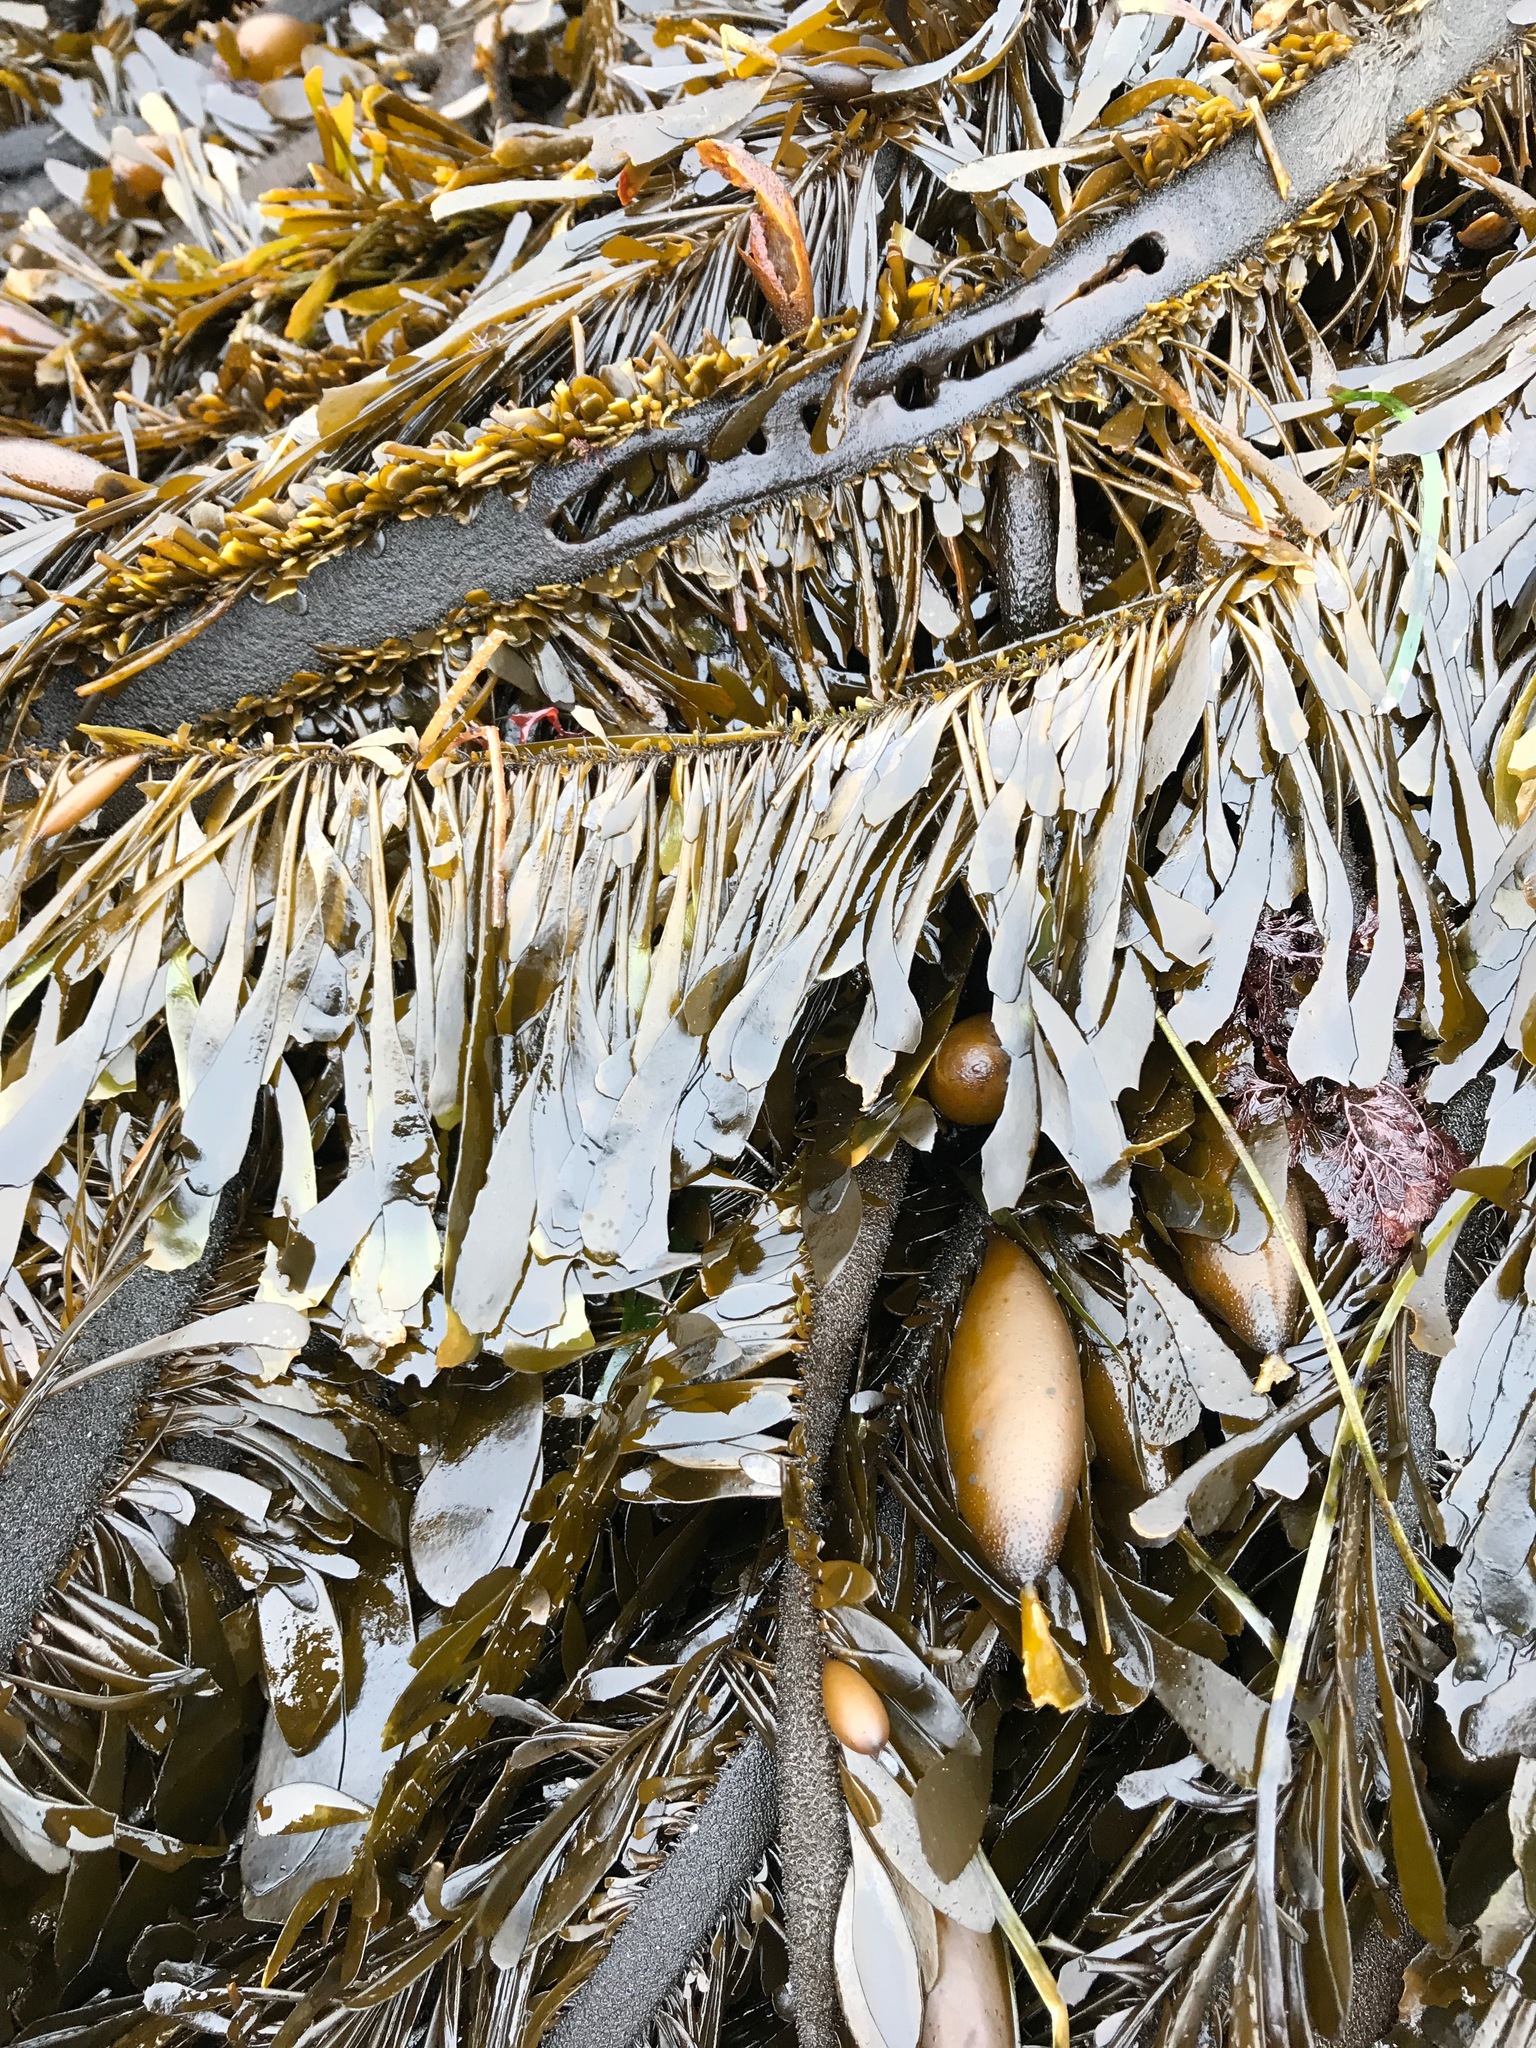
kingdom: Chromista
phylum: Ochrophyta
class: Phaeophyceae
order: Laminariales
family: Lessoniaceae
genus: Egregia
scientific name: Egregia menziesii
